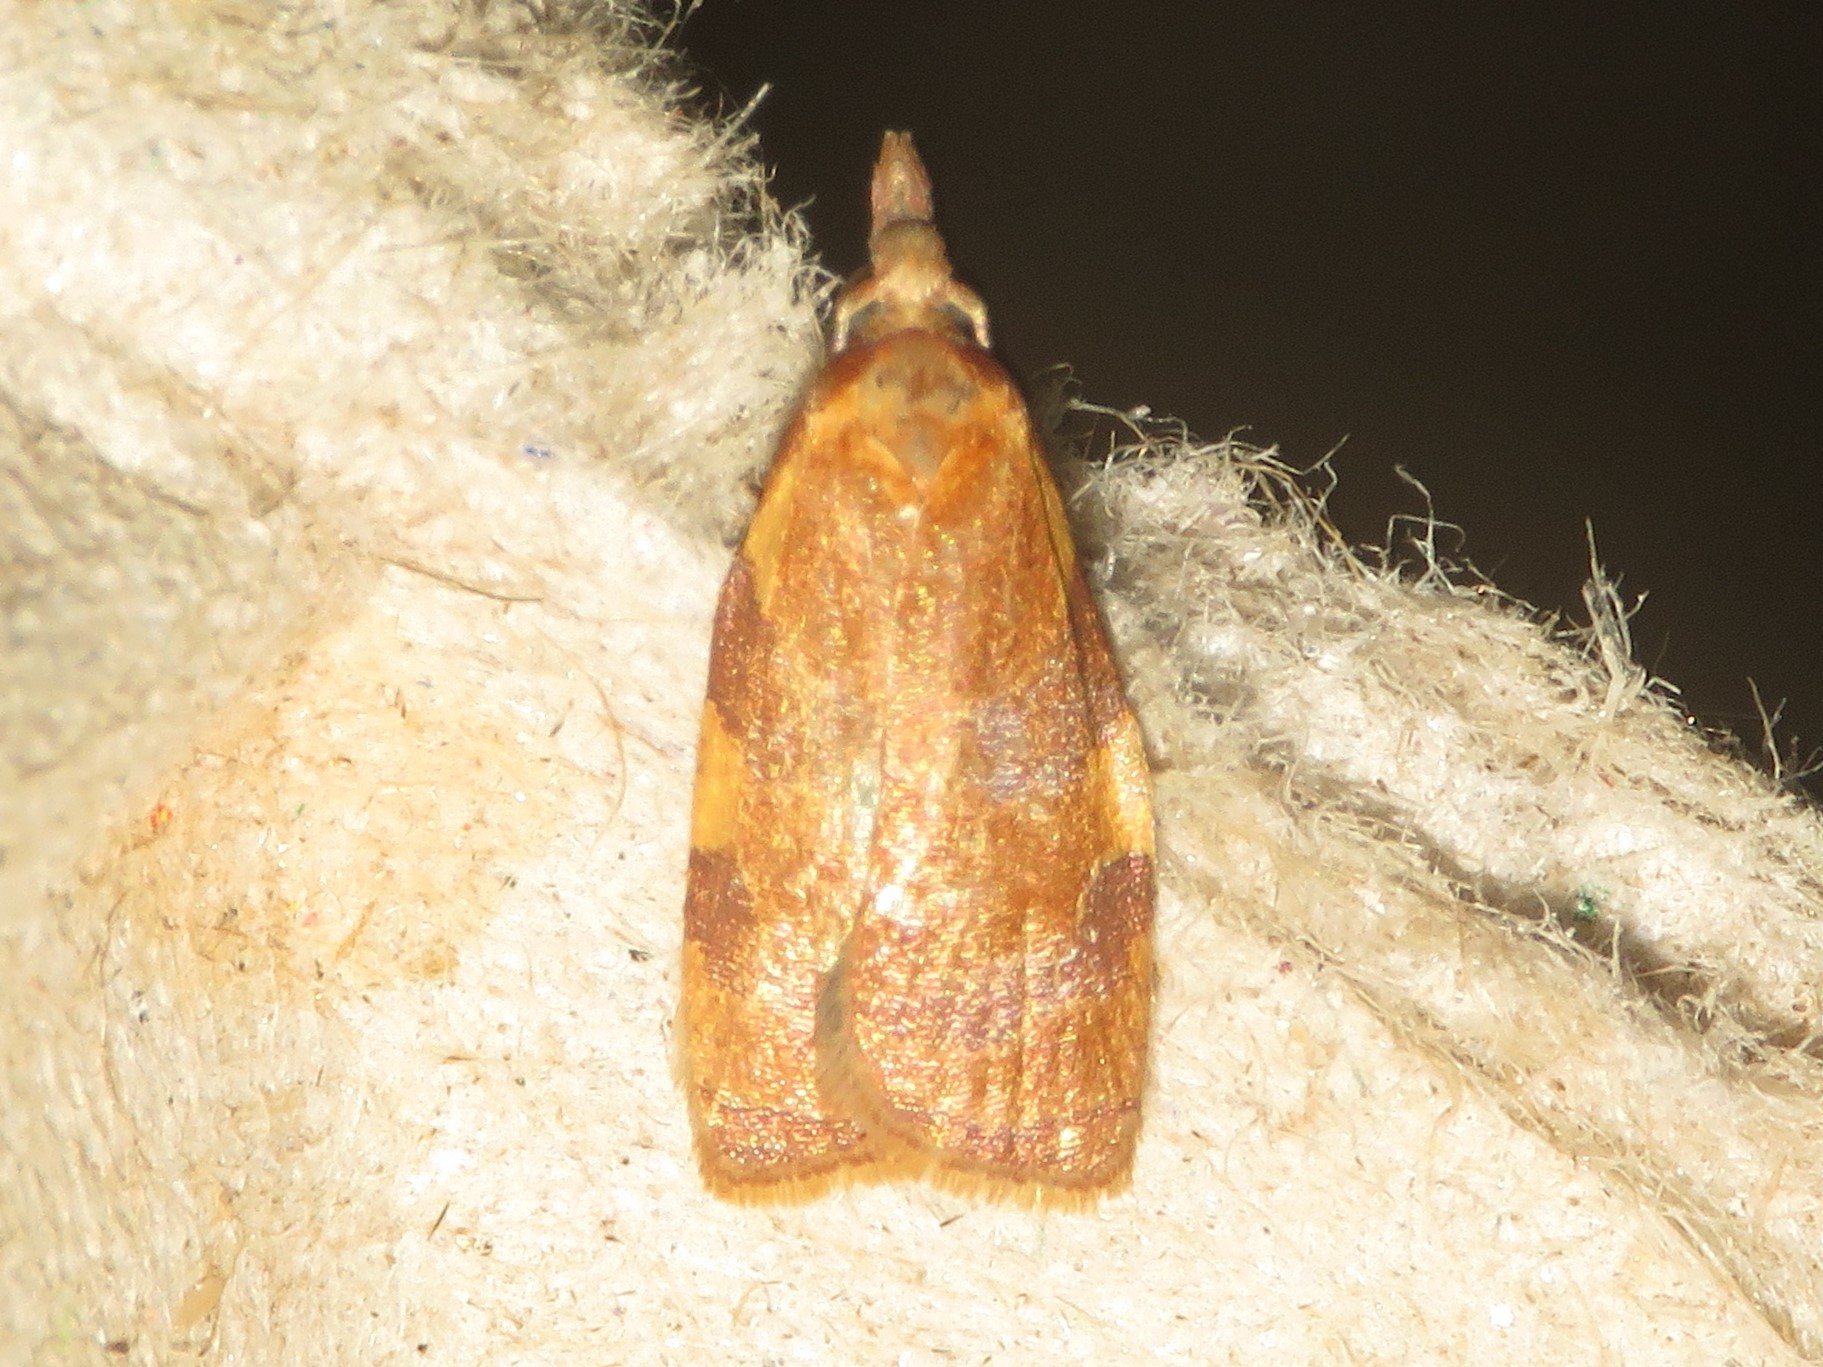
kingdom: Animalia
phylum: Arthropoda
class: Insecta
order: Lepidoptera
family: Tortricidae
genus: Cenopis
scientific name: Cenopis diluticostana
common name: Spring dead-leaf roller moth
